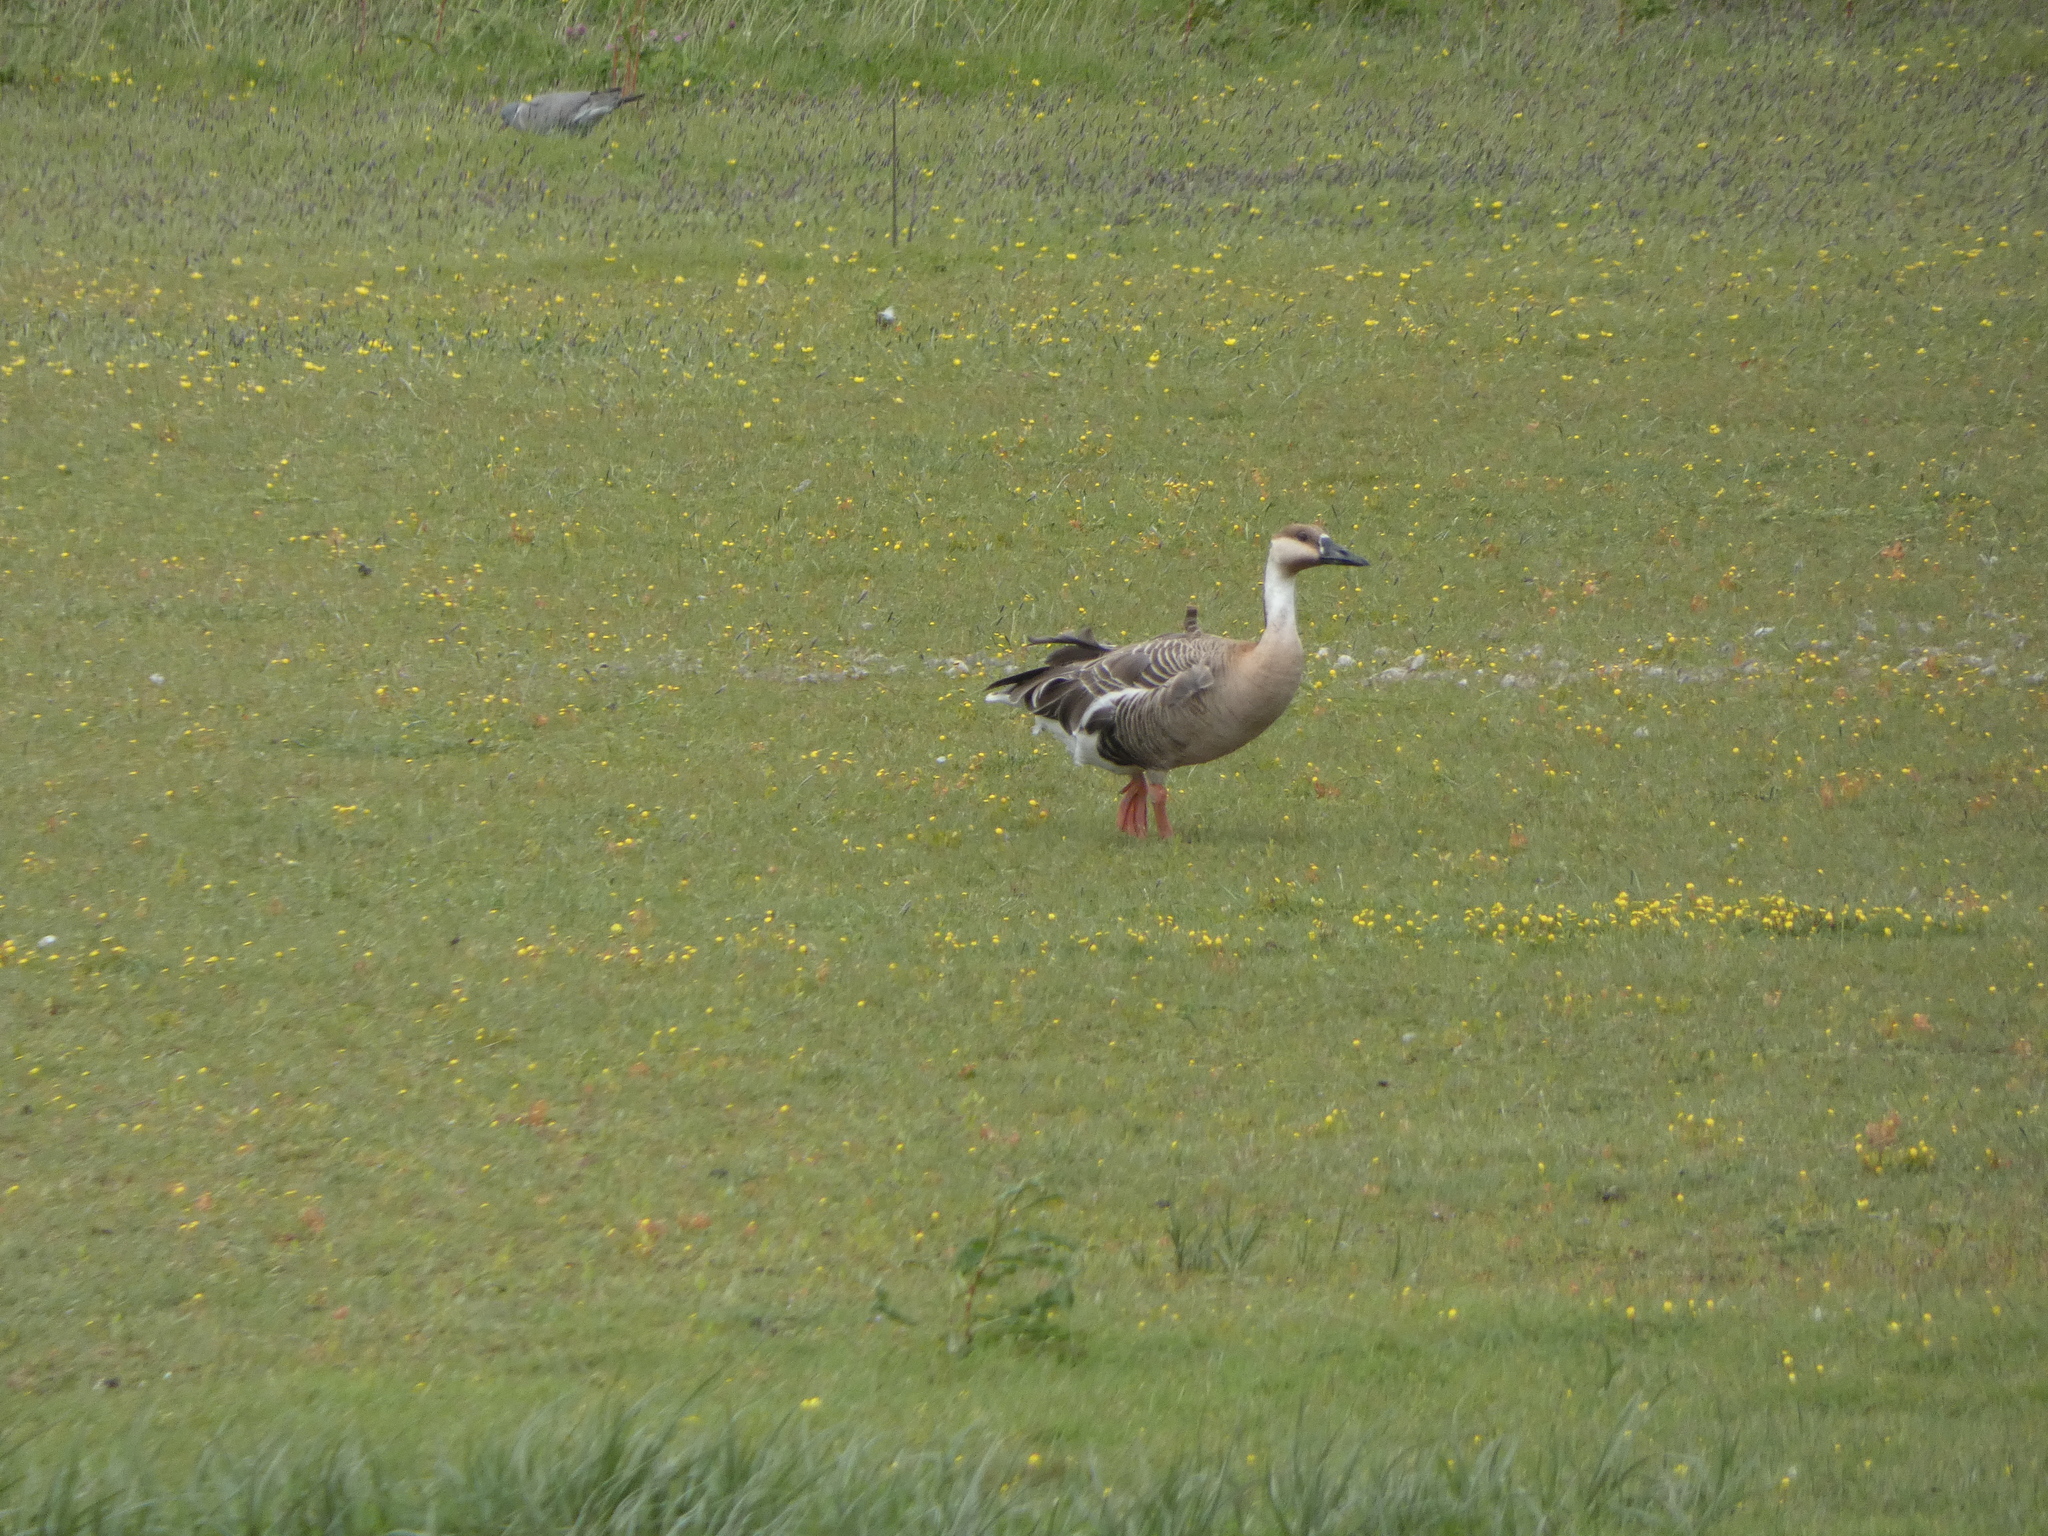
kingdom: Animalia
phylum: Chordata
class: Aves
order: Anseriformes
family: Anatidae
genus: Anser
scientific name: Anser cygnoides
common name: Swan goose
